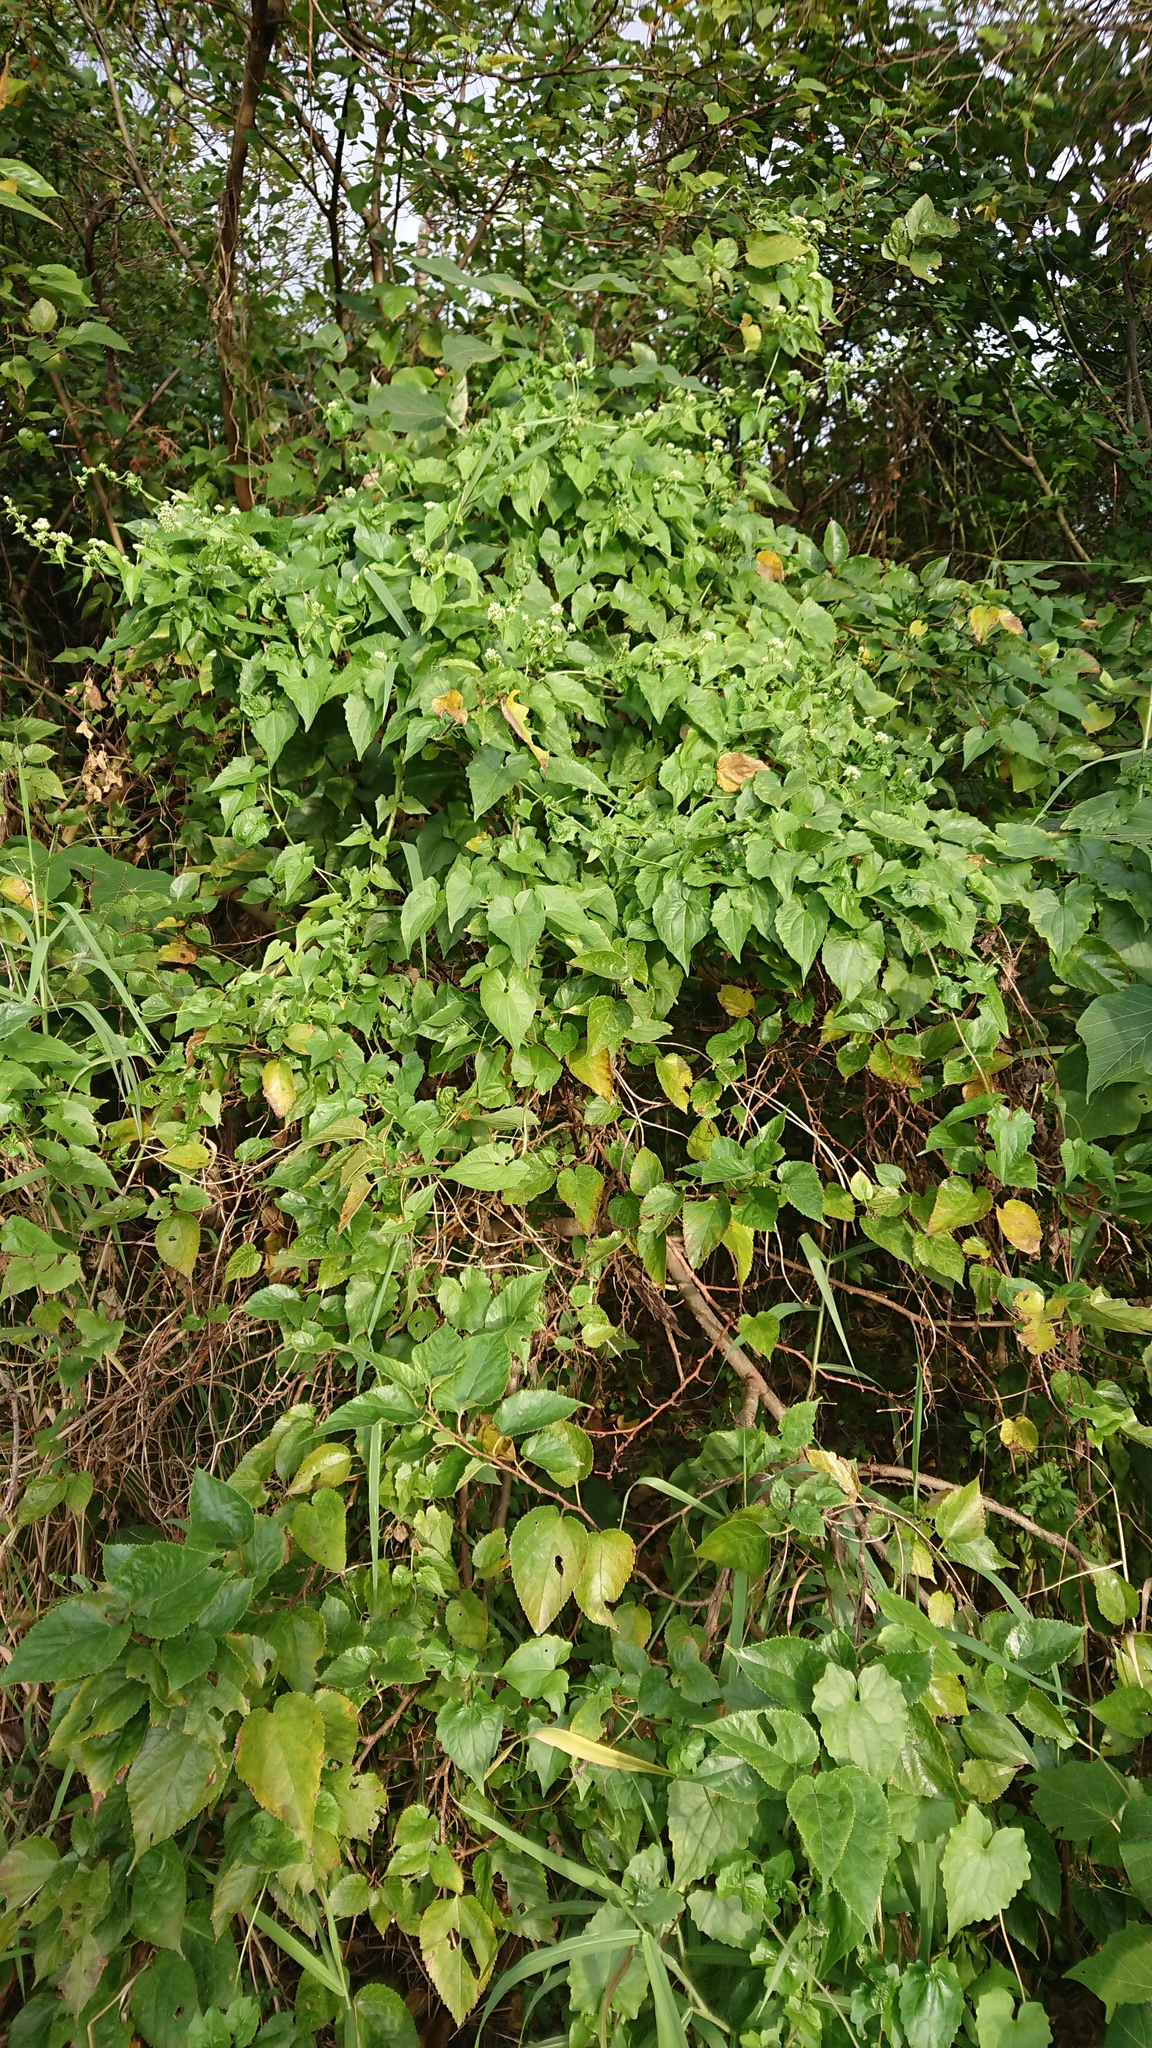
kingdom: Plantae
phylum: Tracheophyta
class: Magnoliopsida
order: Asterales
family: Asteraceae
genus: Mikania
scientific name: Mikania micrantha
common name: Mile-a-minute
